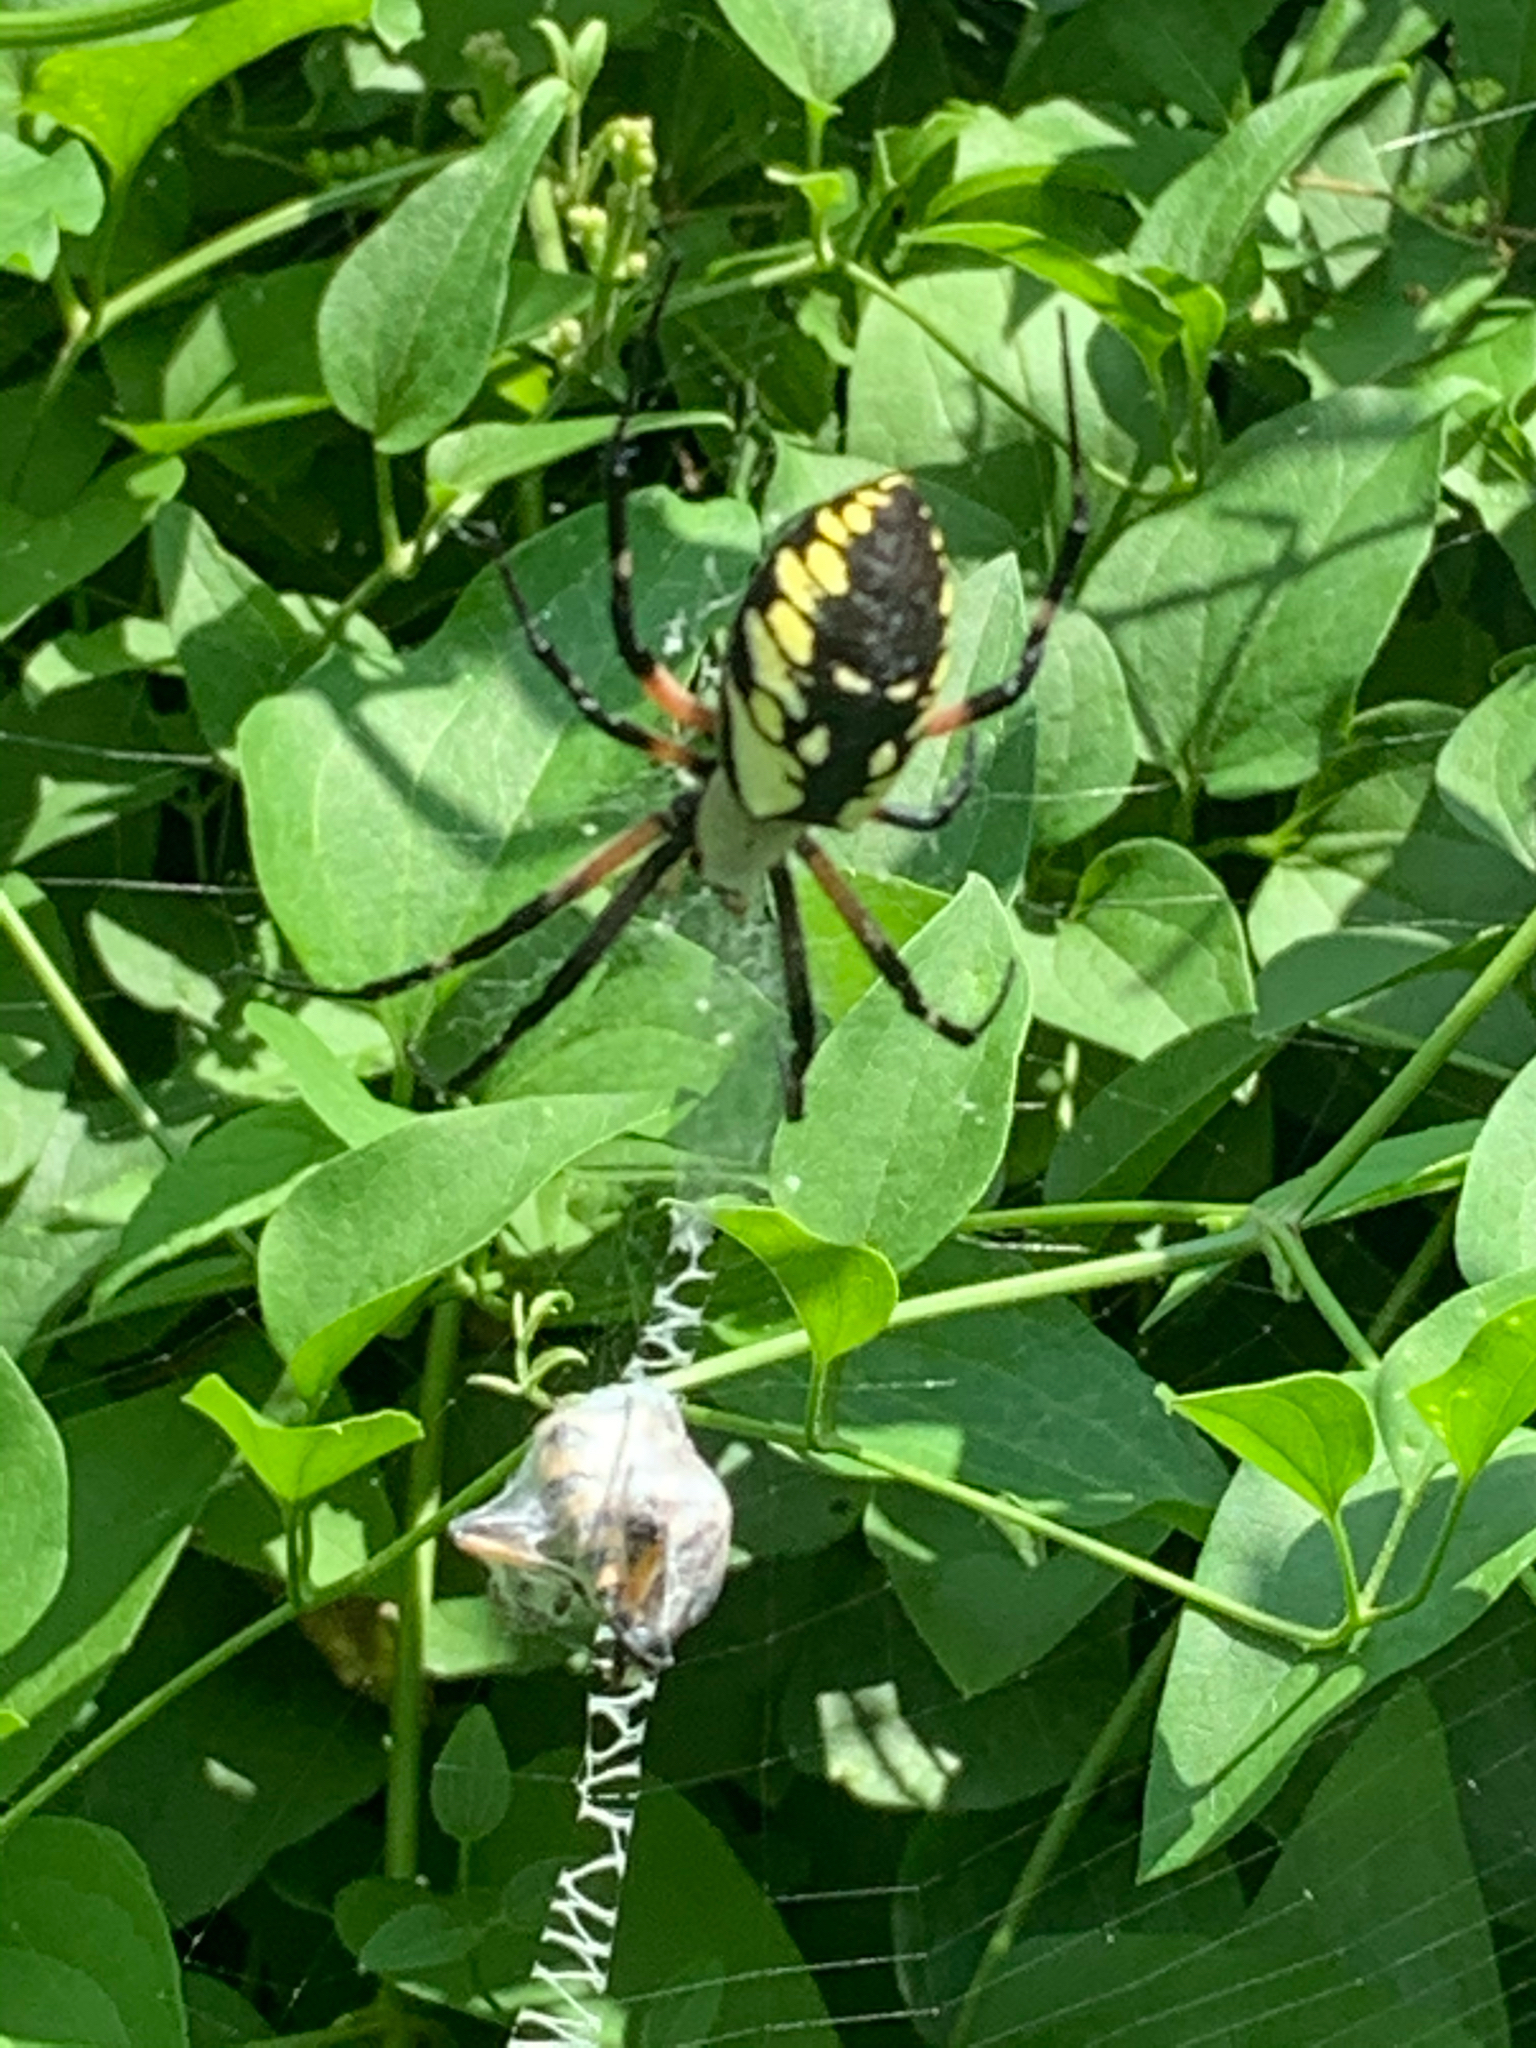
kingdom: Animalia
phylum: Arthropoda
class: Arachnida
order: Araneae
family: Araneidae
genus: Argiope
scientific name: Argiope aurantia
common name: Orb weavers
